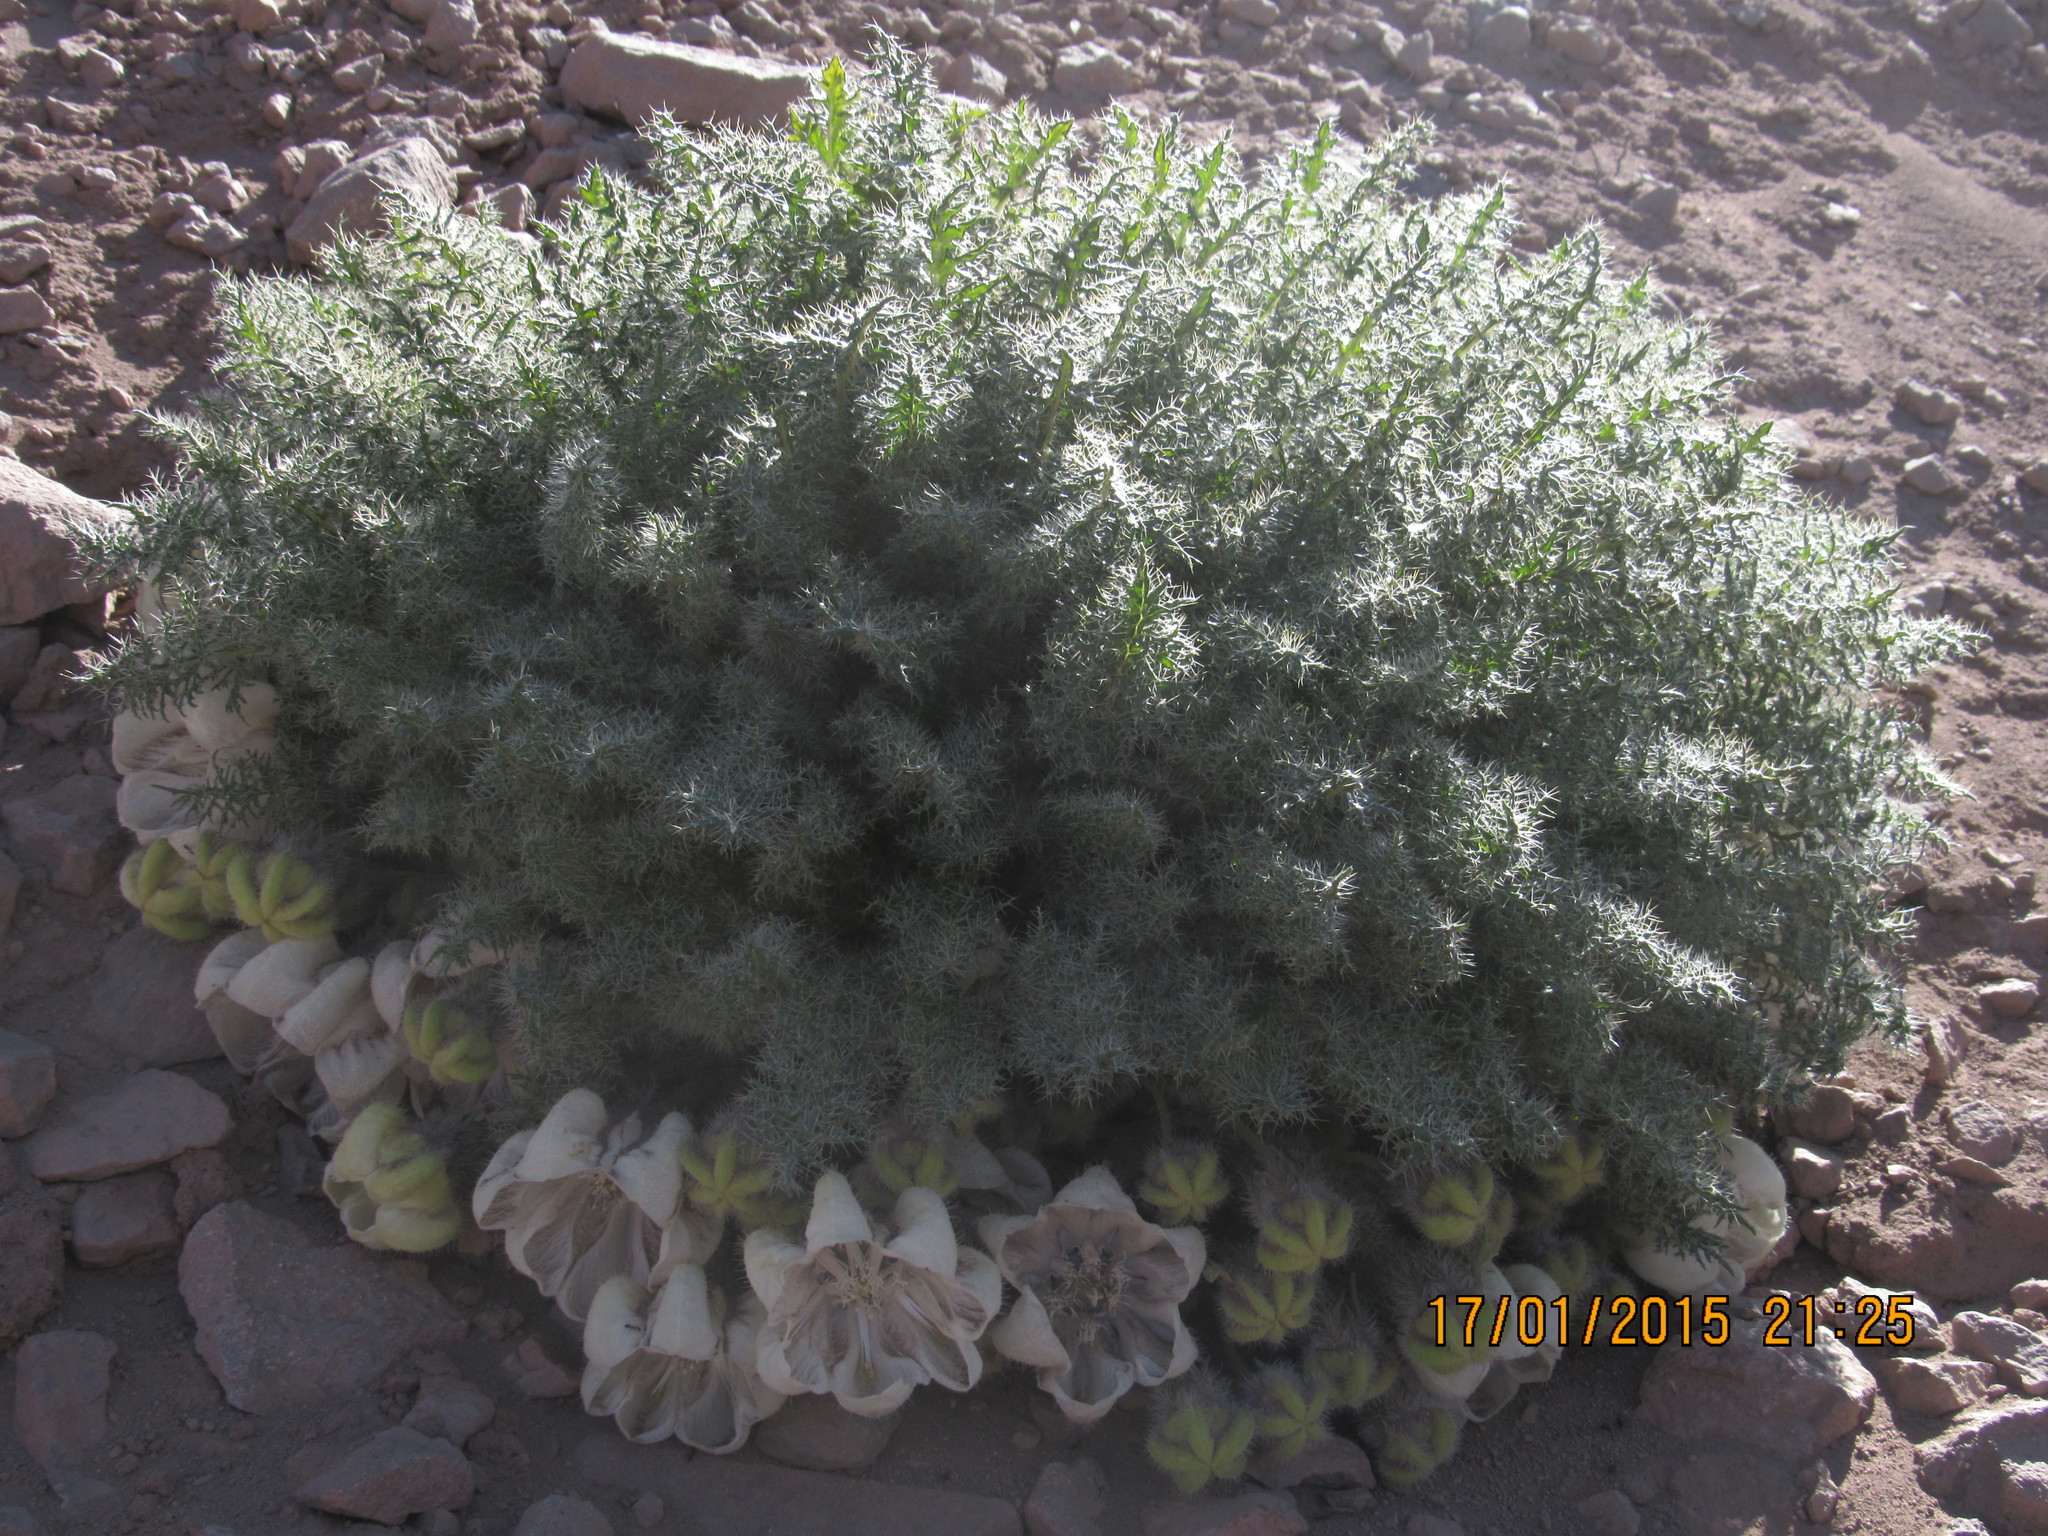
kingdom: Plantae
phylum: Tracheophyta
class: Magnoliopsida
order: Cornales
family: Loasaceae
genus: Caiophora
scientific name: Caiophora coronata
